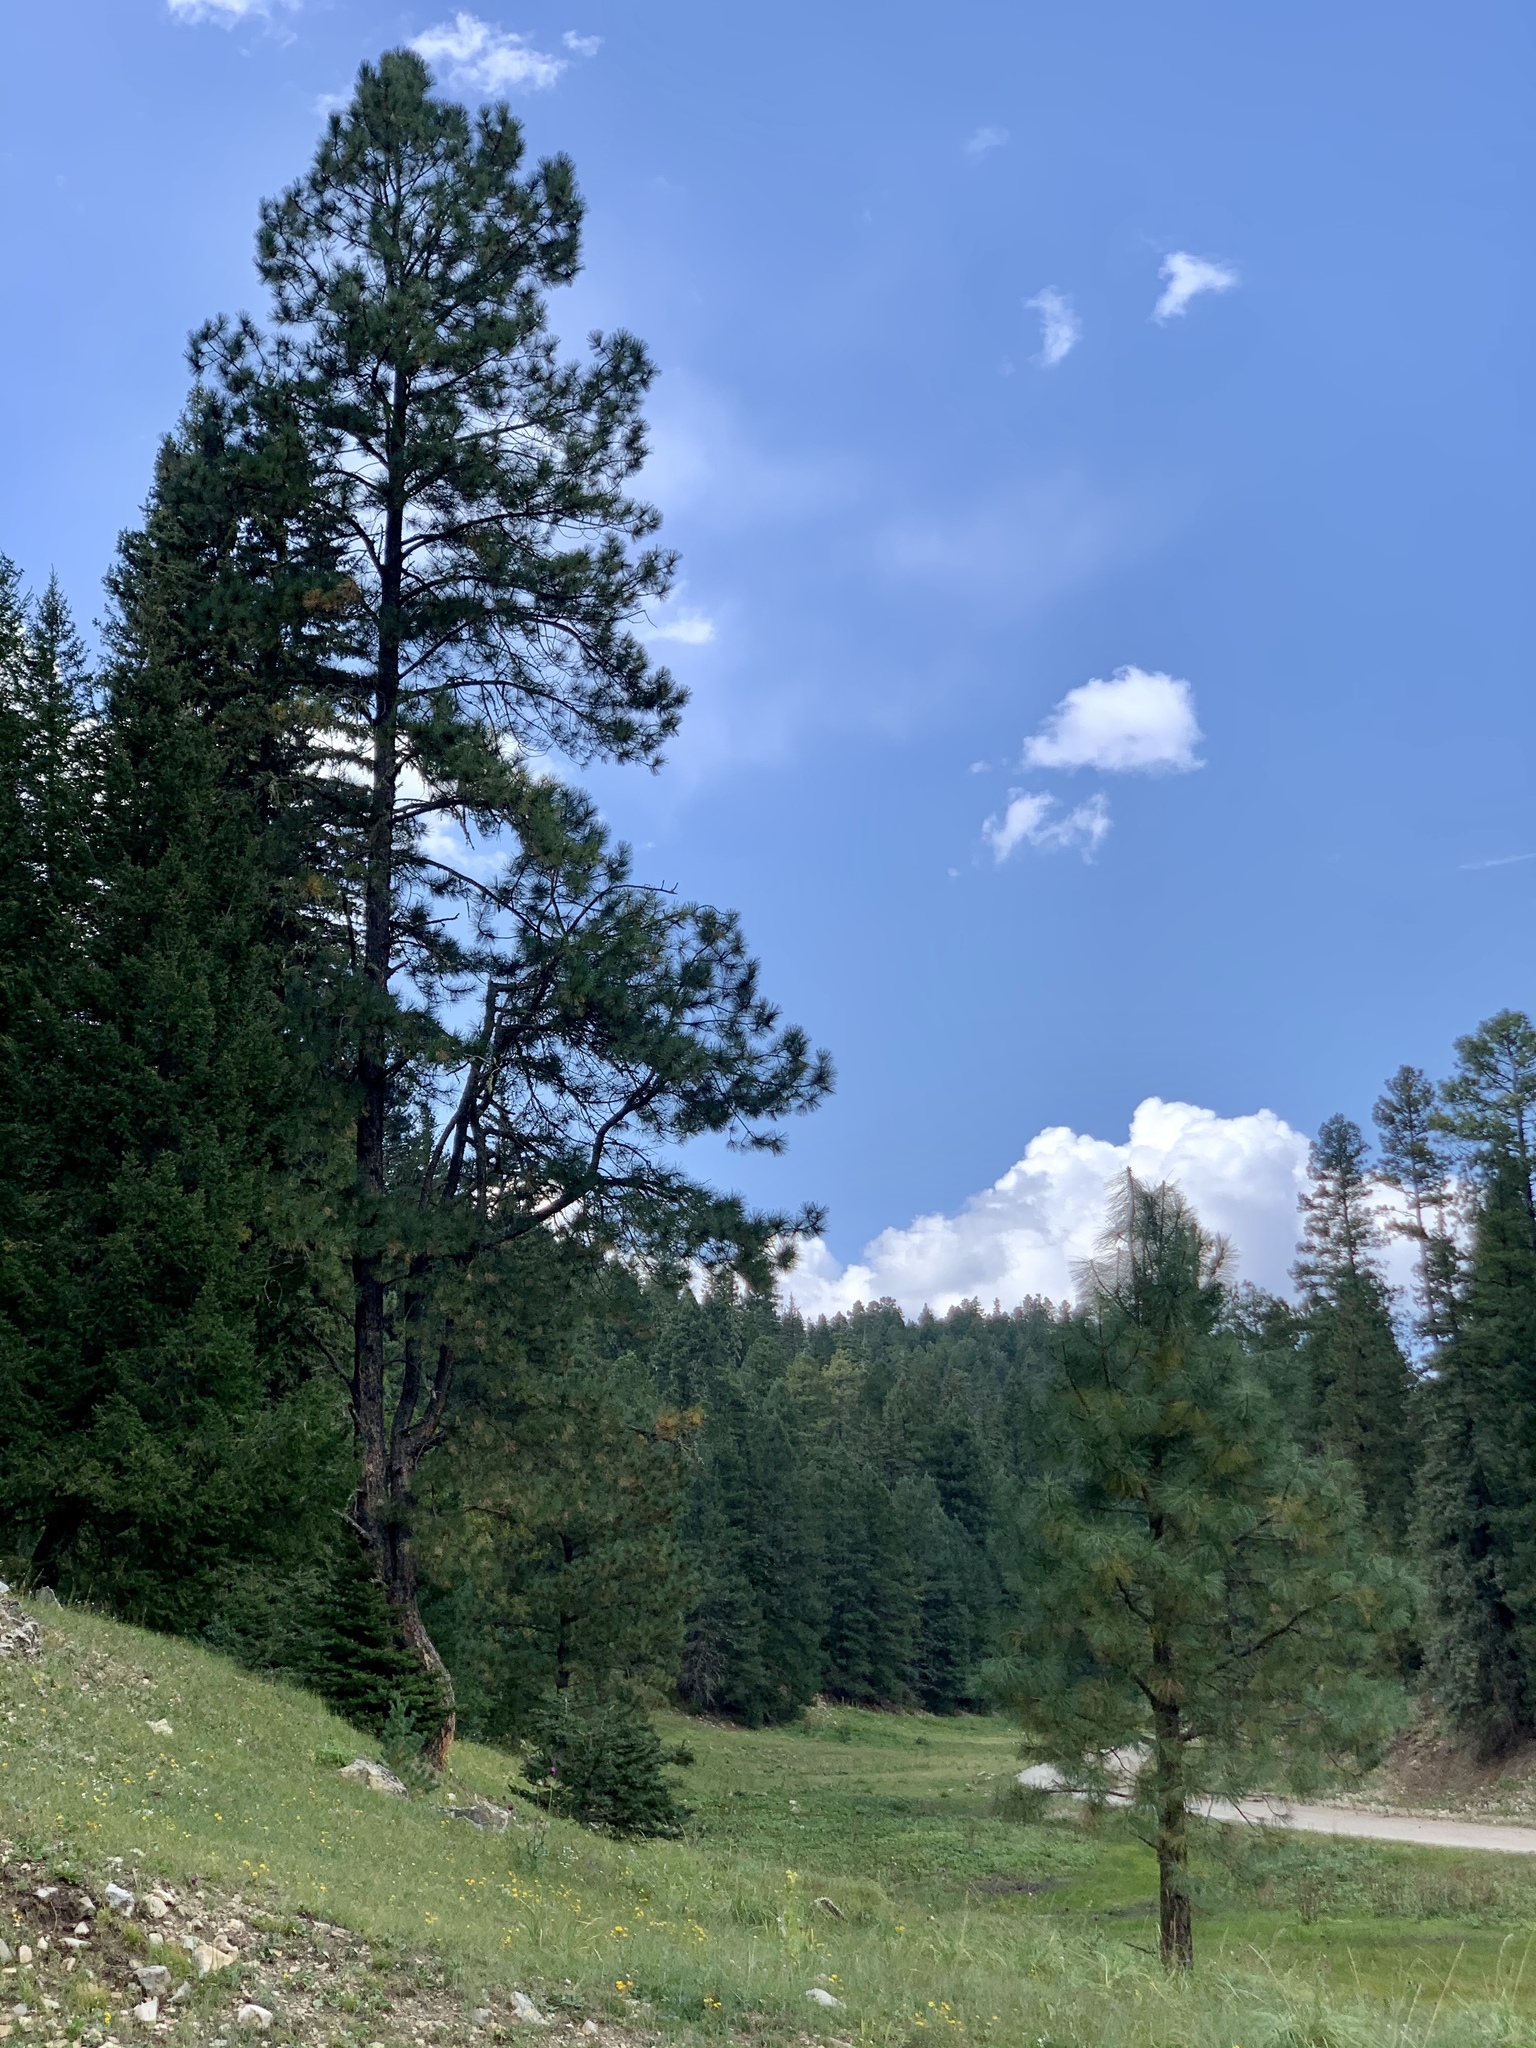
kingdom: Plantae
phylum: Tracheophyta
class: Pinopsida
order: Pinales
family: Pinaceae
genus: Pinus
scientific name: Pinus ponderosa
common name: Western yellow-pine
